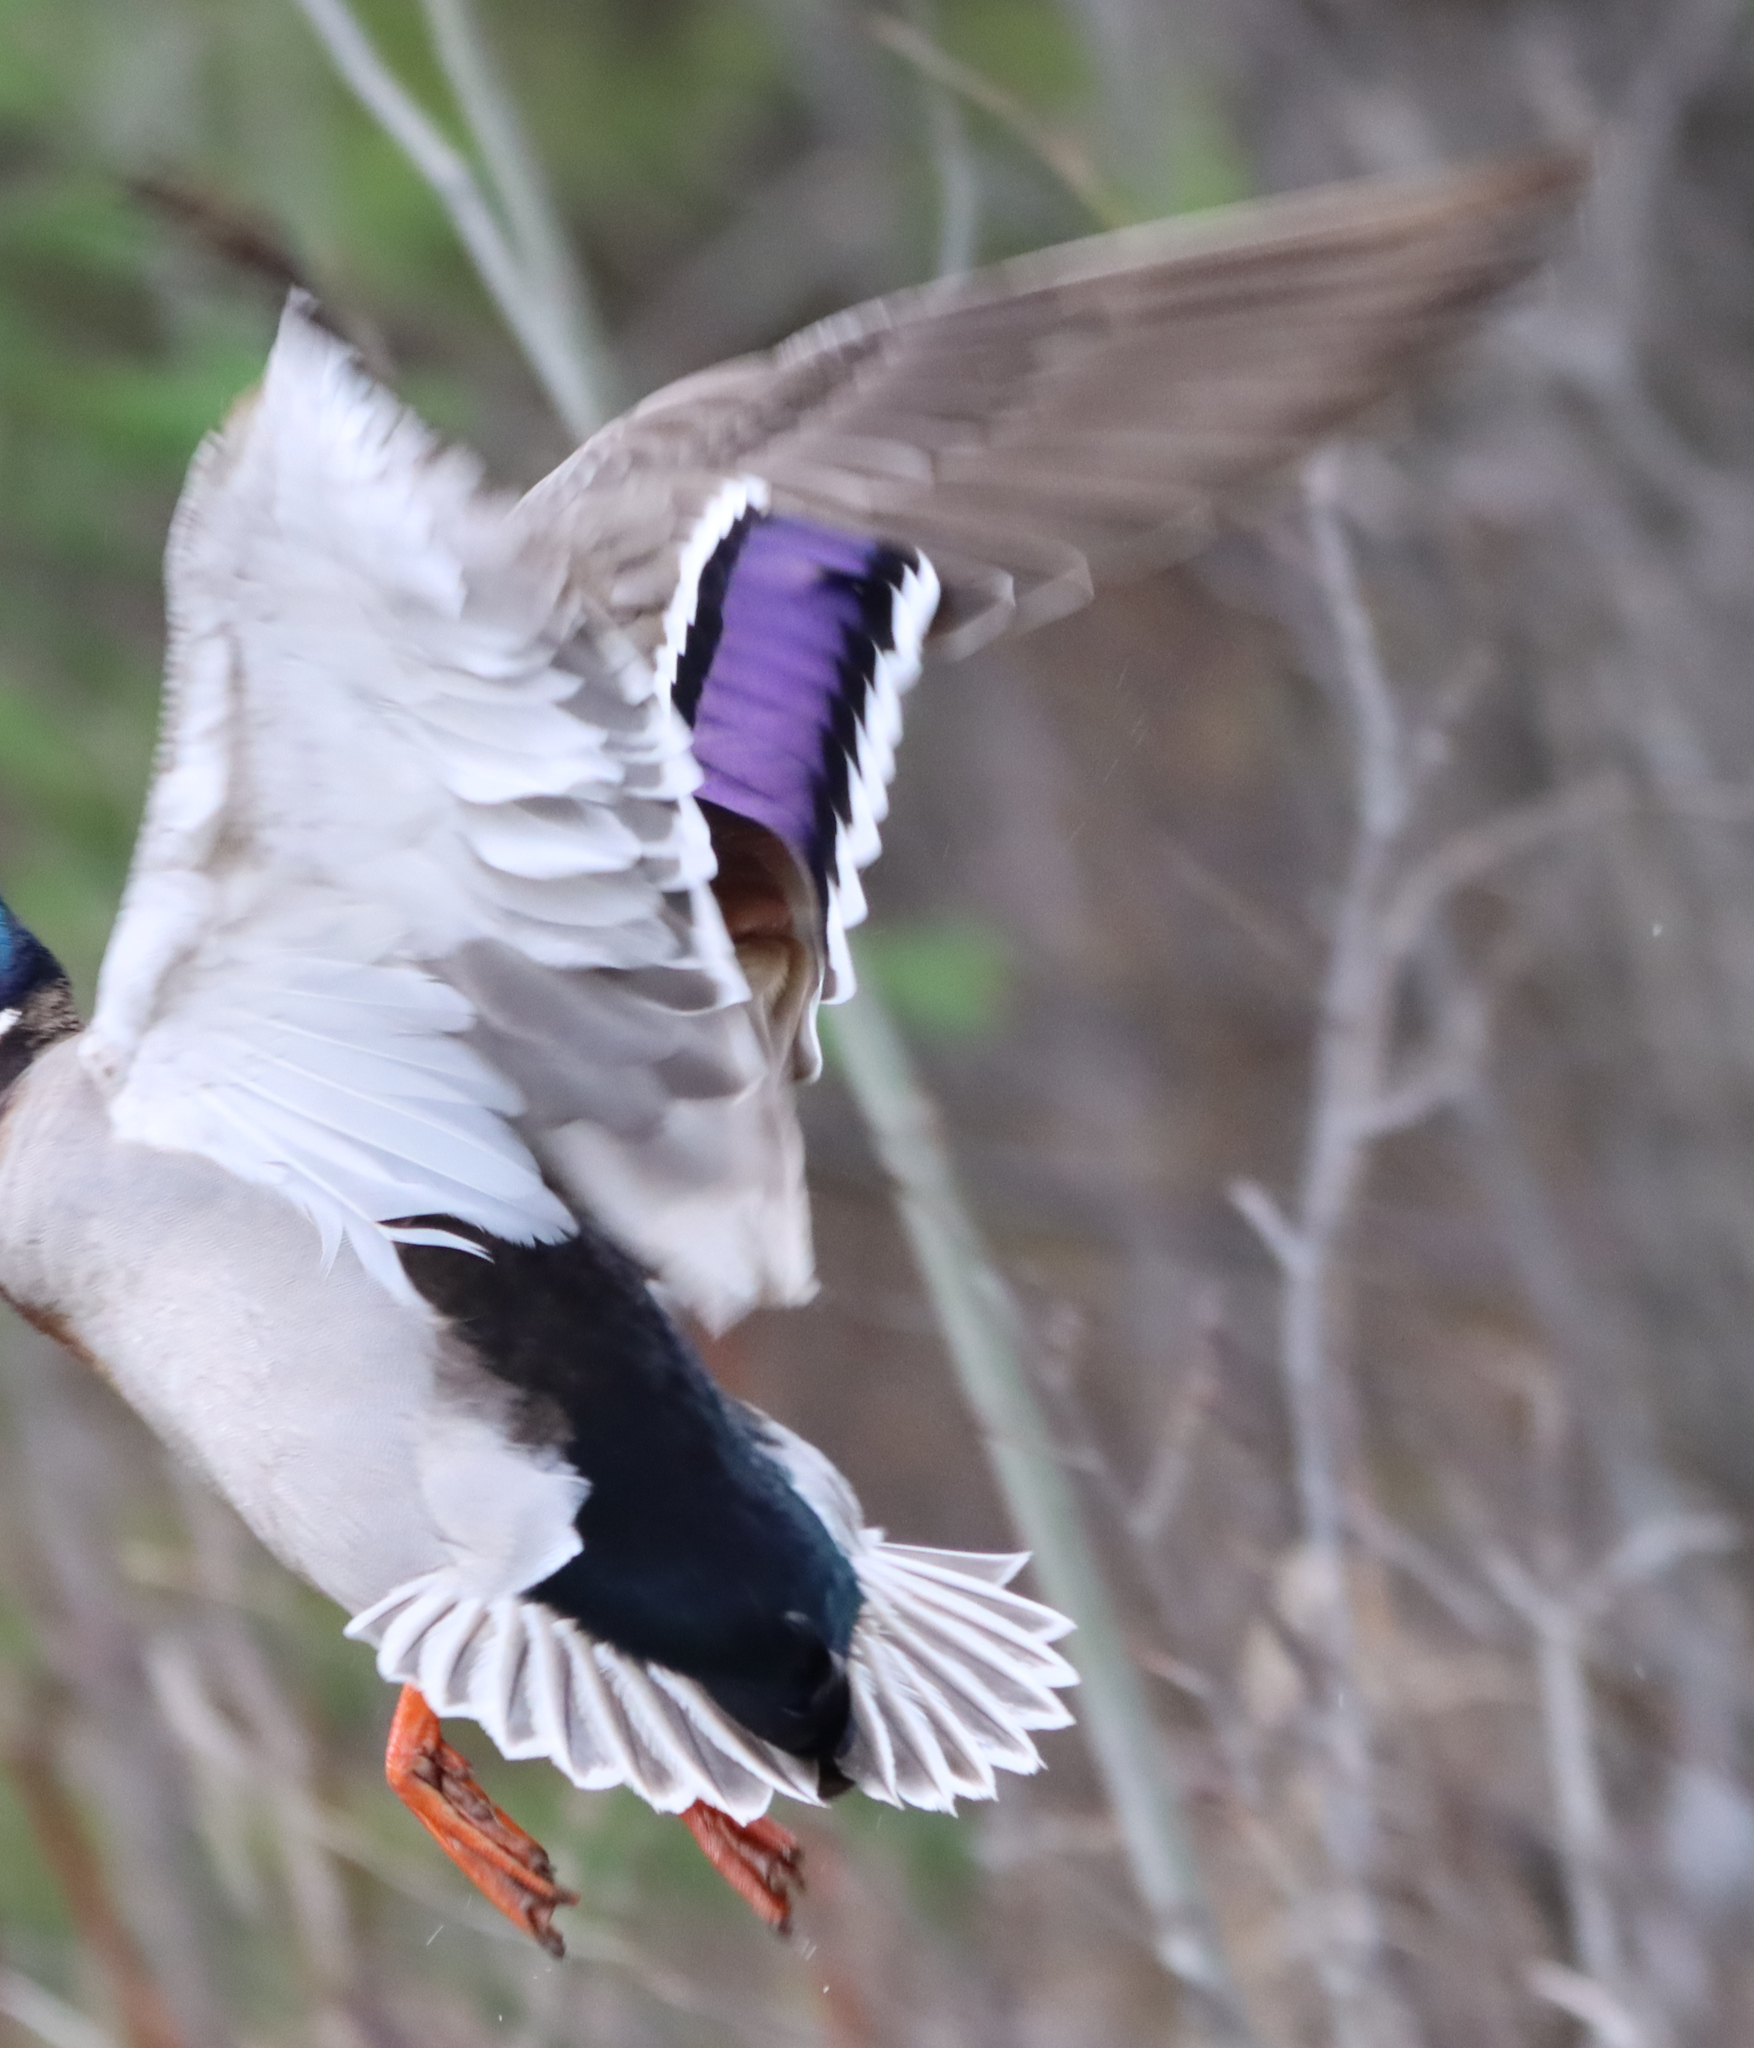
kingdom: Animalia
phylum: Chordata
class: Aves
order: Anseriformes
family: Anatidae
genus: Anas
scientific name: Anas platyrhynchos
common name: Mallard
